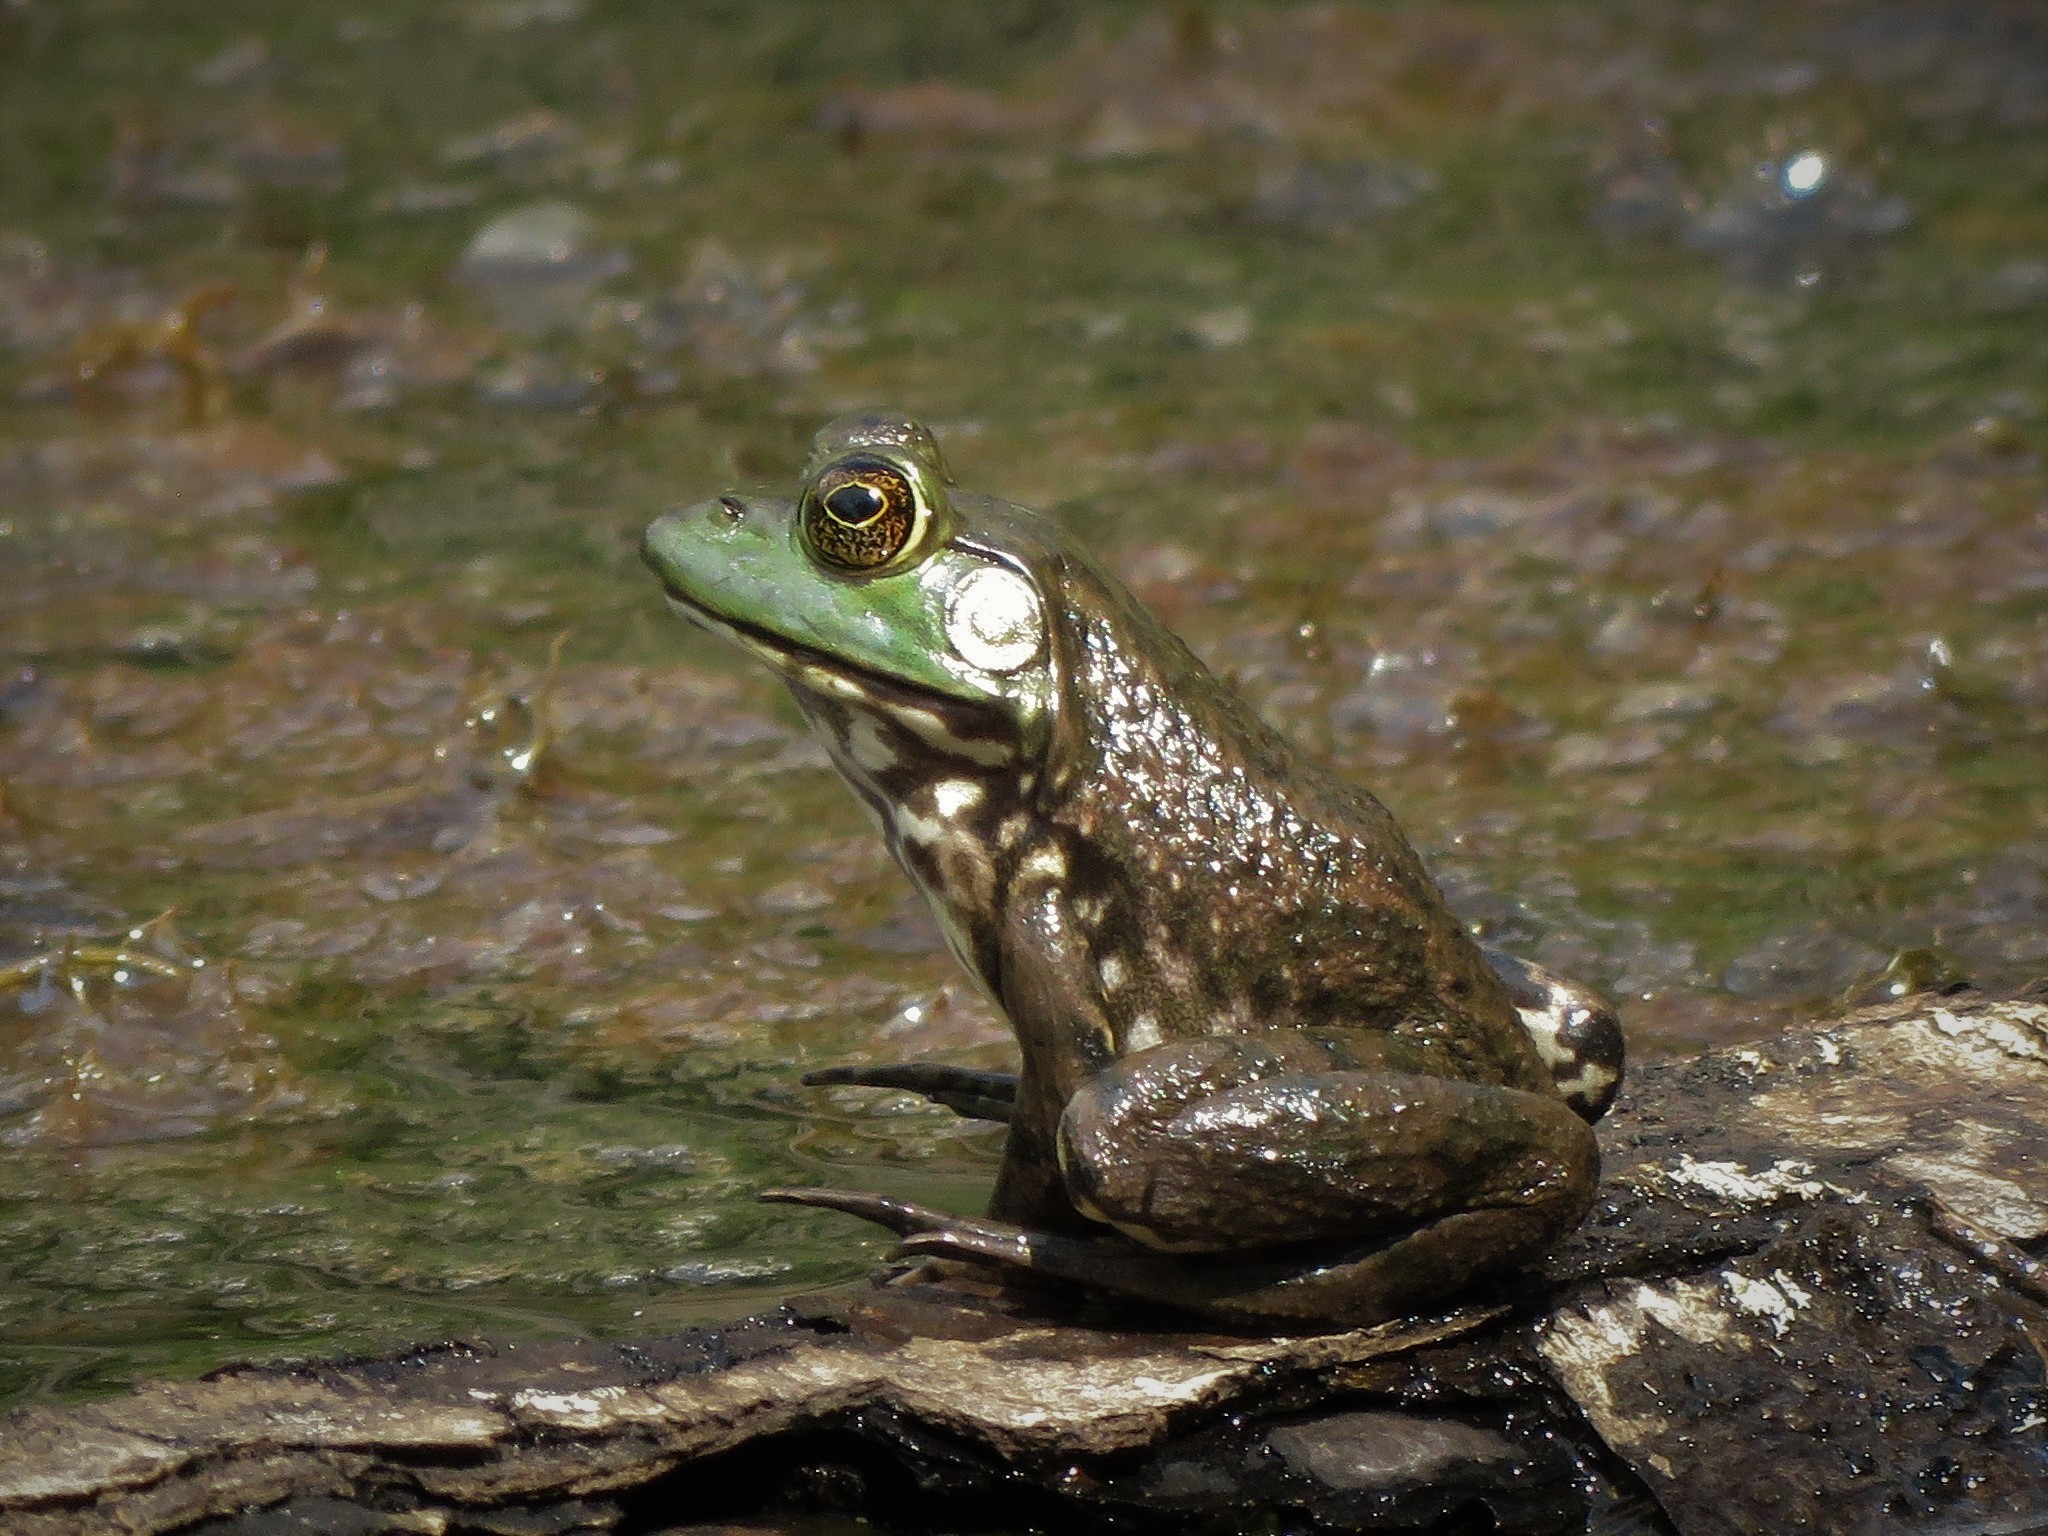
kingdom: Animalia
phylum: Chordata
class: Amphibia
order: Anura
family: Ranidae
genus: Lithobates
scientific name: Lithobates catesbeianus
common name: American bullfrog
